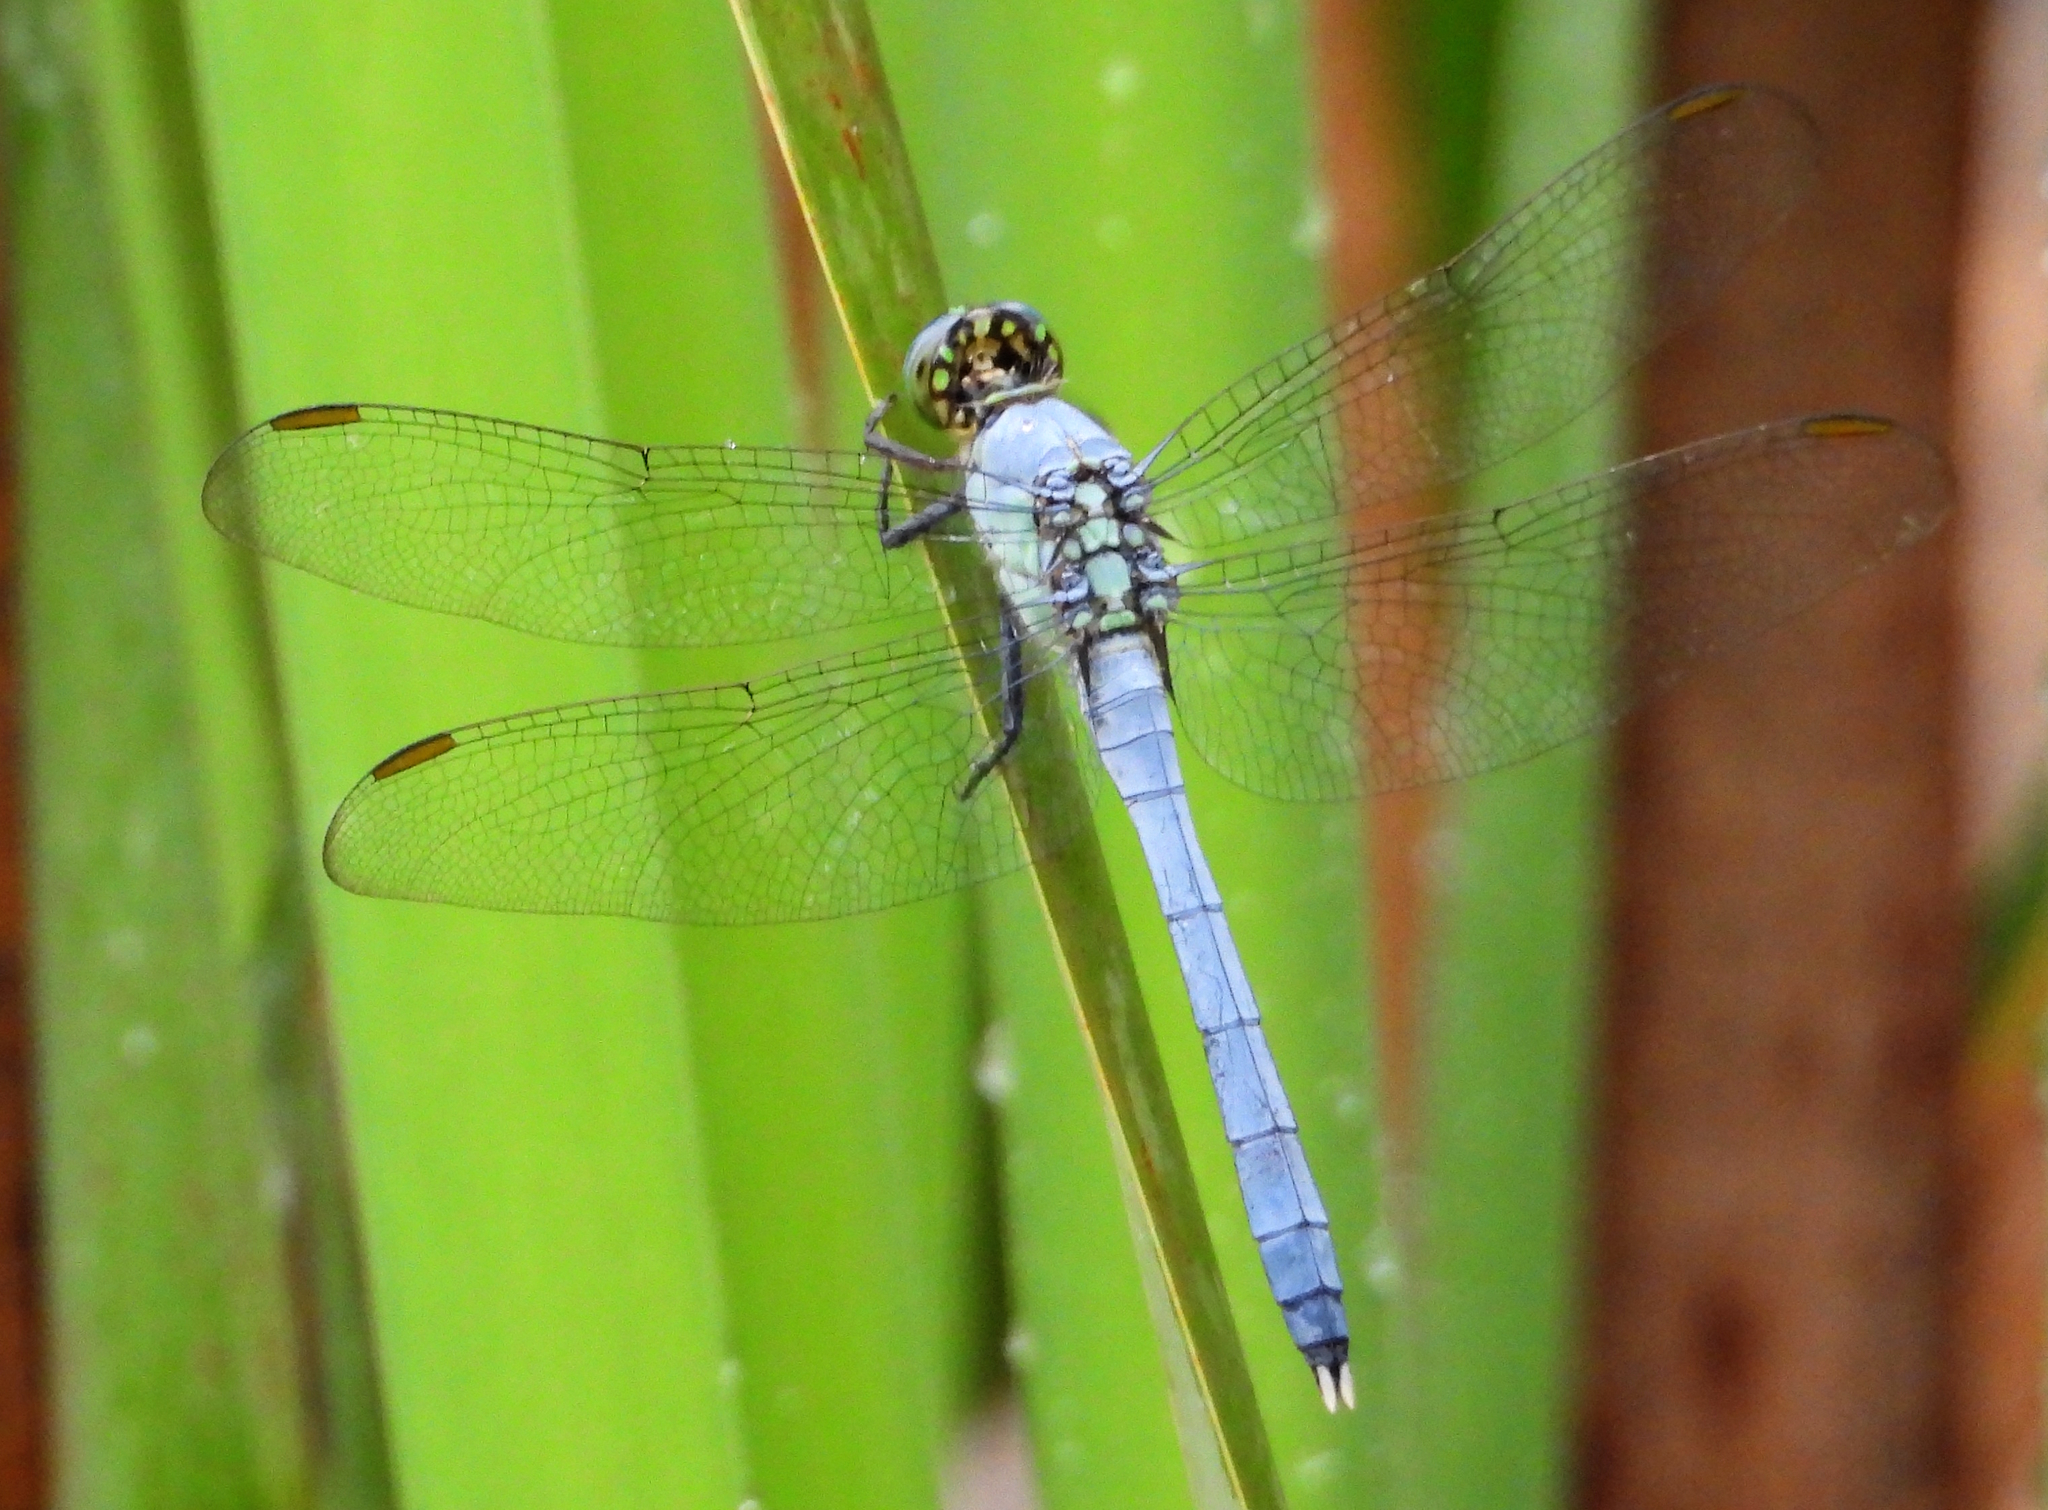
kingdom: Animalia
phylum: Arthropoda
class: Insecta
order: Odonata
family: Libellulidae
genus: Erythemis
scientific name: Erythemis simplicicollis
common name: Eastern pondhawk
